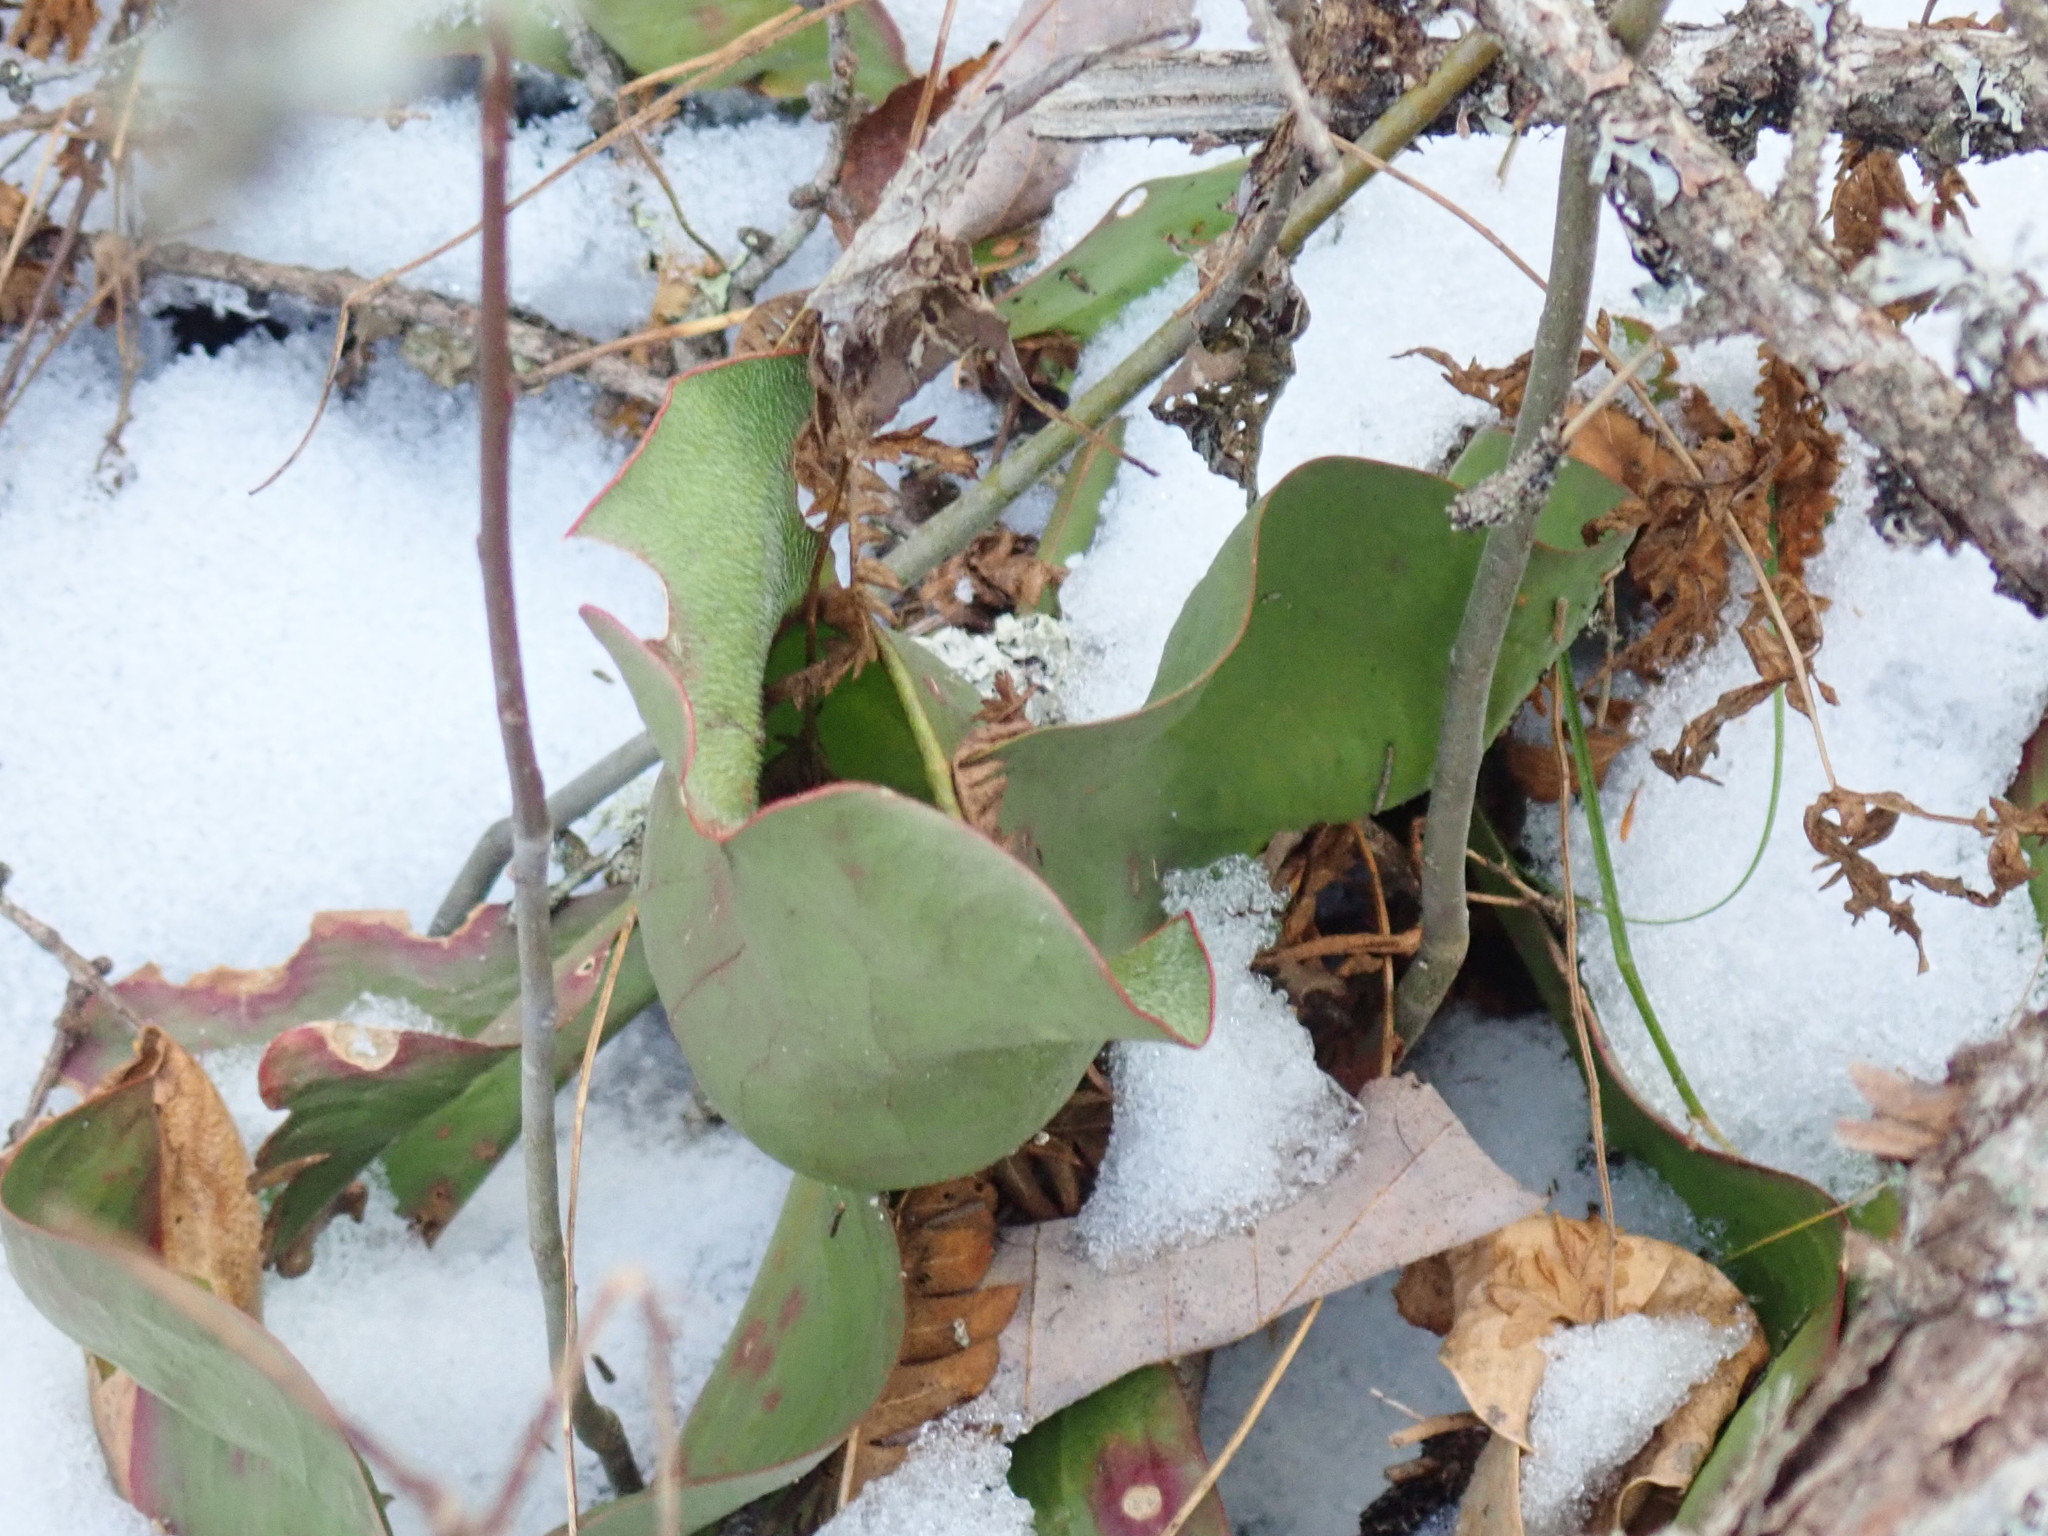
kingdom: Plantae
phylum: Tracheophyta
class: Magnoliopsida
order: Ericales
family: Sarraceniaceae
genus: Sarracenia
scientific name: Sarracenia purpurea
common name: Pitcherplant
